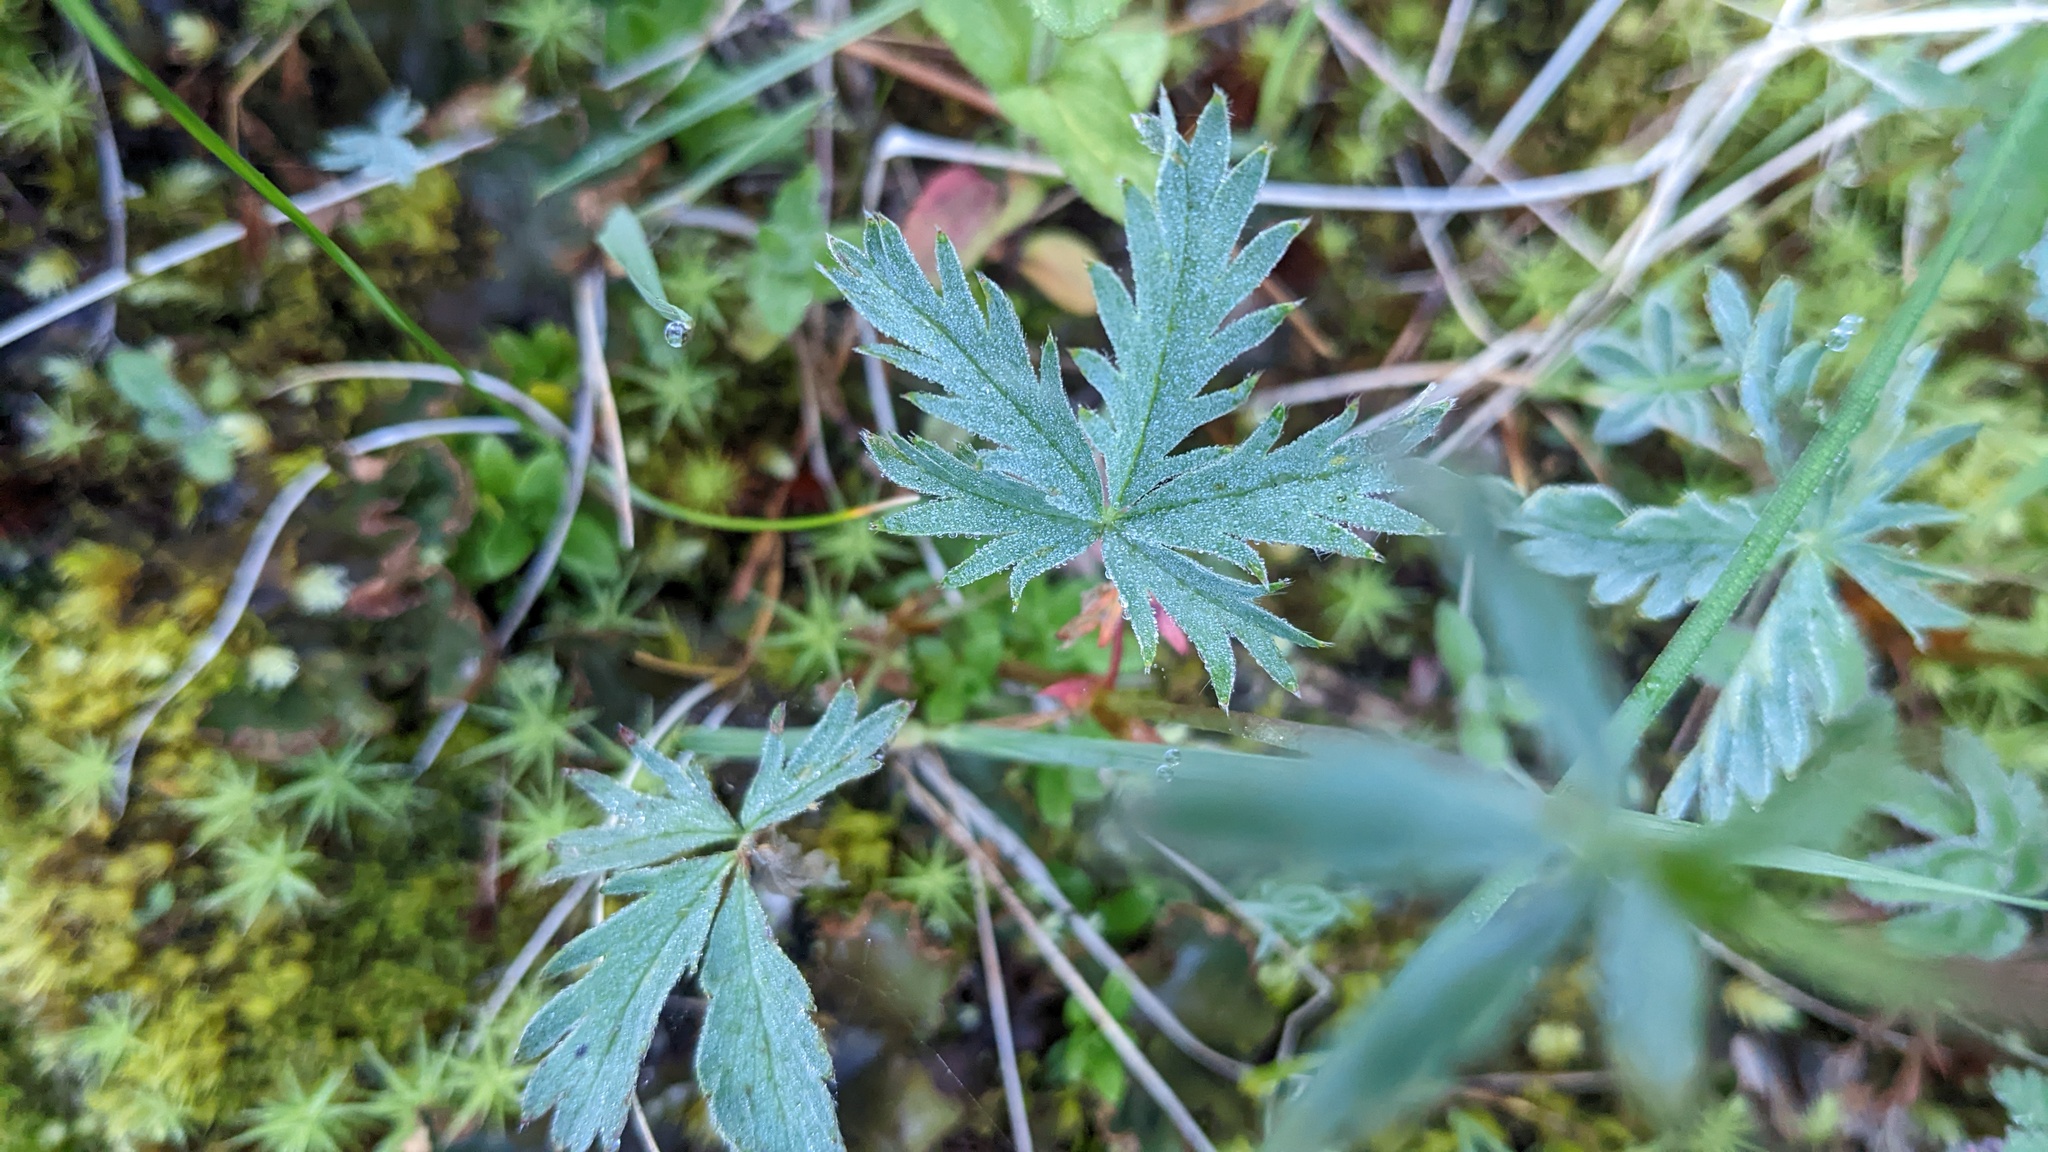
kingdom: Plantae
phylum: Tracheophyta
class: Magnoliopsida
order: Rosales
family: Rosaceae
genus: Potentilla
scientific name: Potentilla glaucophylla
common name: Blue-leaved cinquefoil
